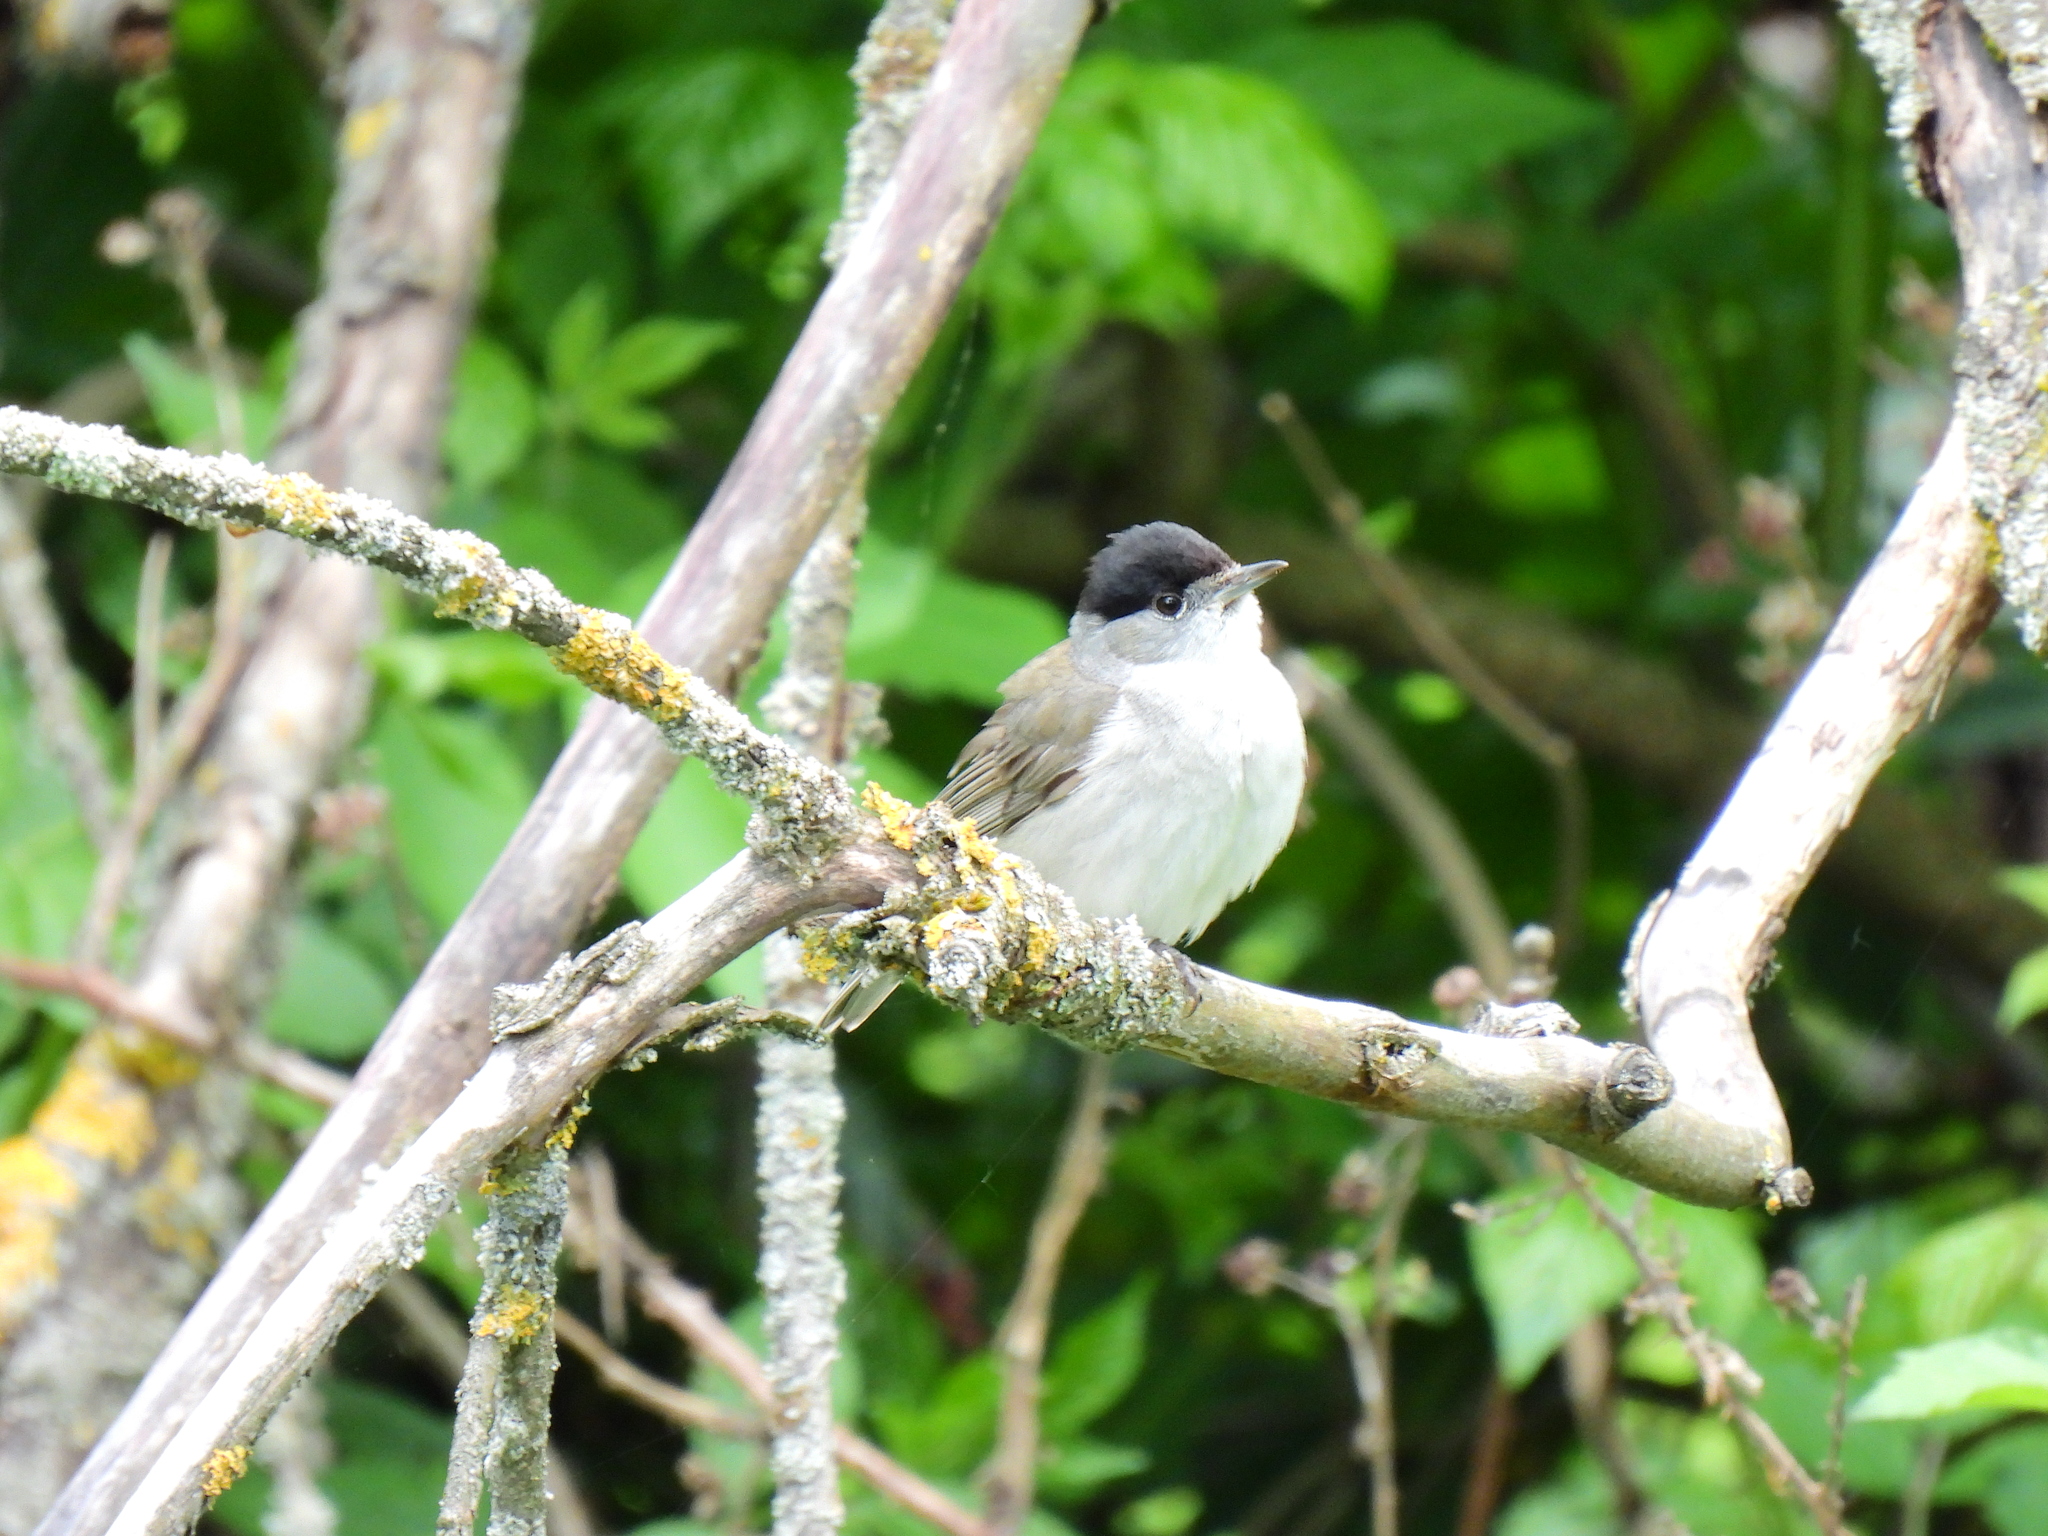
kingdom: Animalia
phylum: Chordata
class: Aves
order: Passeriformes
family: Sylviidae
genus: Sylvia
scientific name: Sylvia atricapilla
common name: Eurasian blackcap
